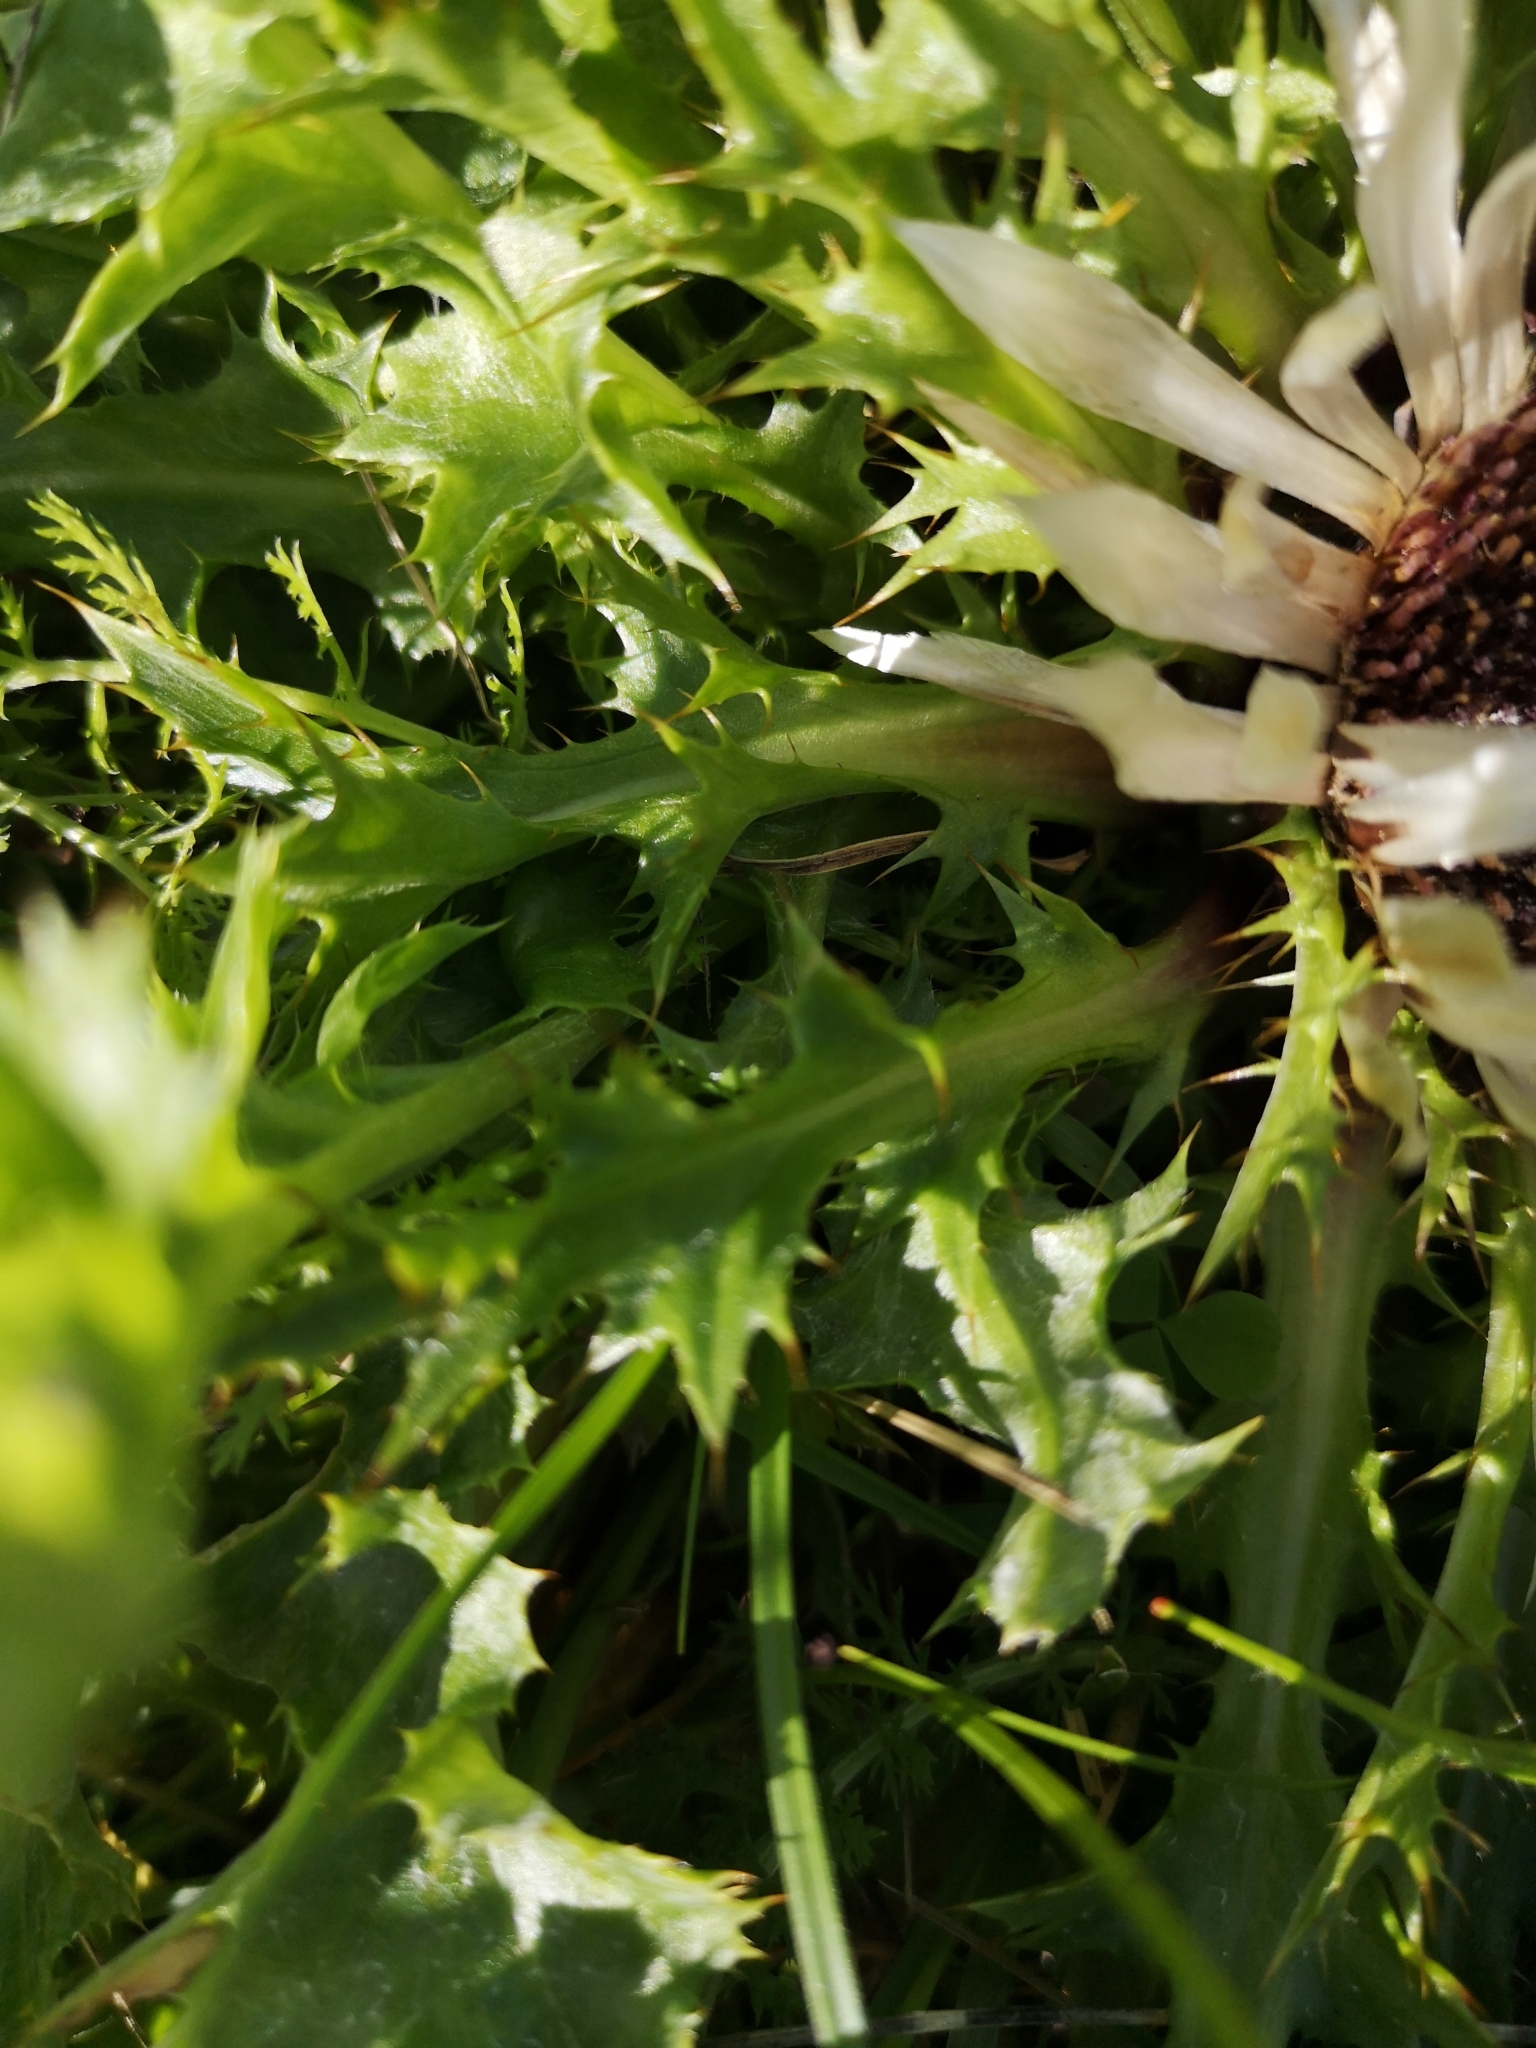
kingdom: Plantae
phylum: Tracheophyta
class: Magnoliopsida
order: Asterales
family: Asteraceae
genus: Carlina
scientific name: Carlina acaulis
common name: Stemless carline thistle
